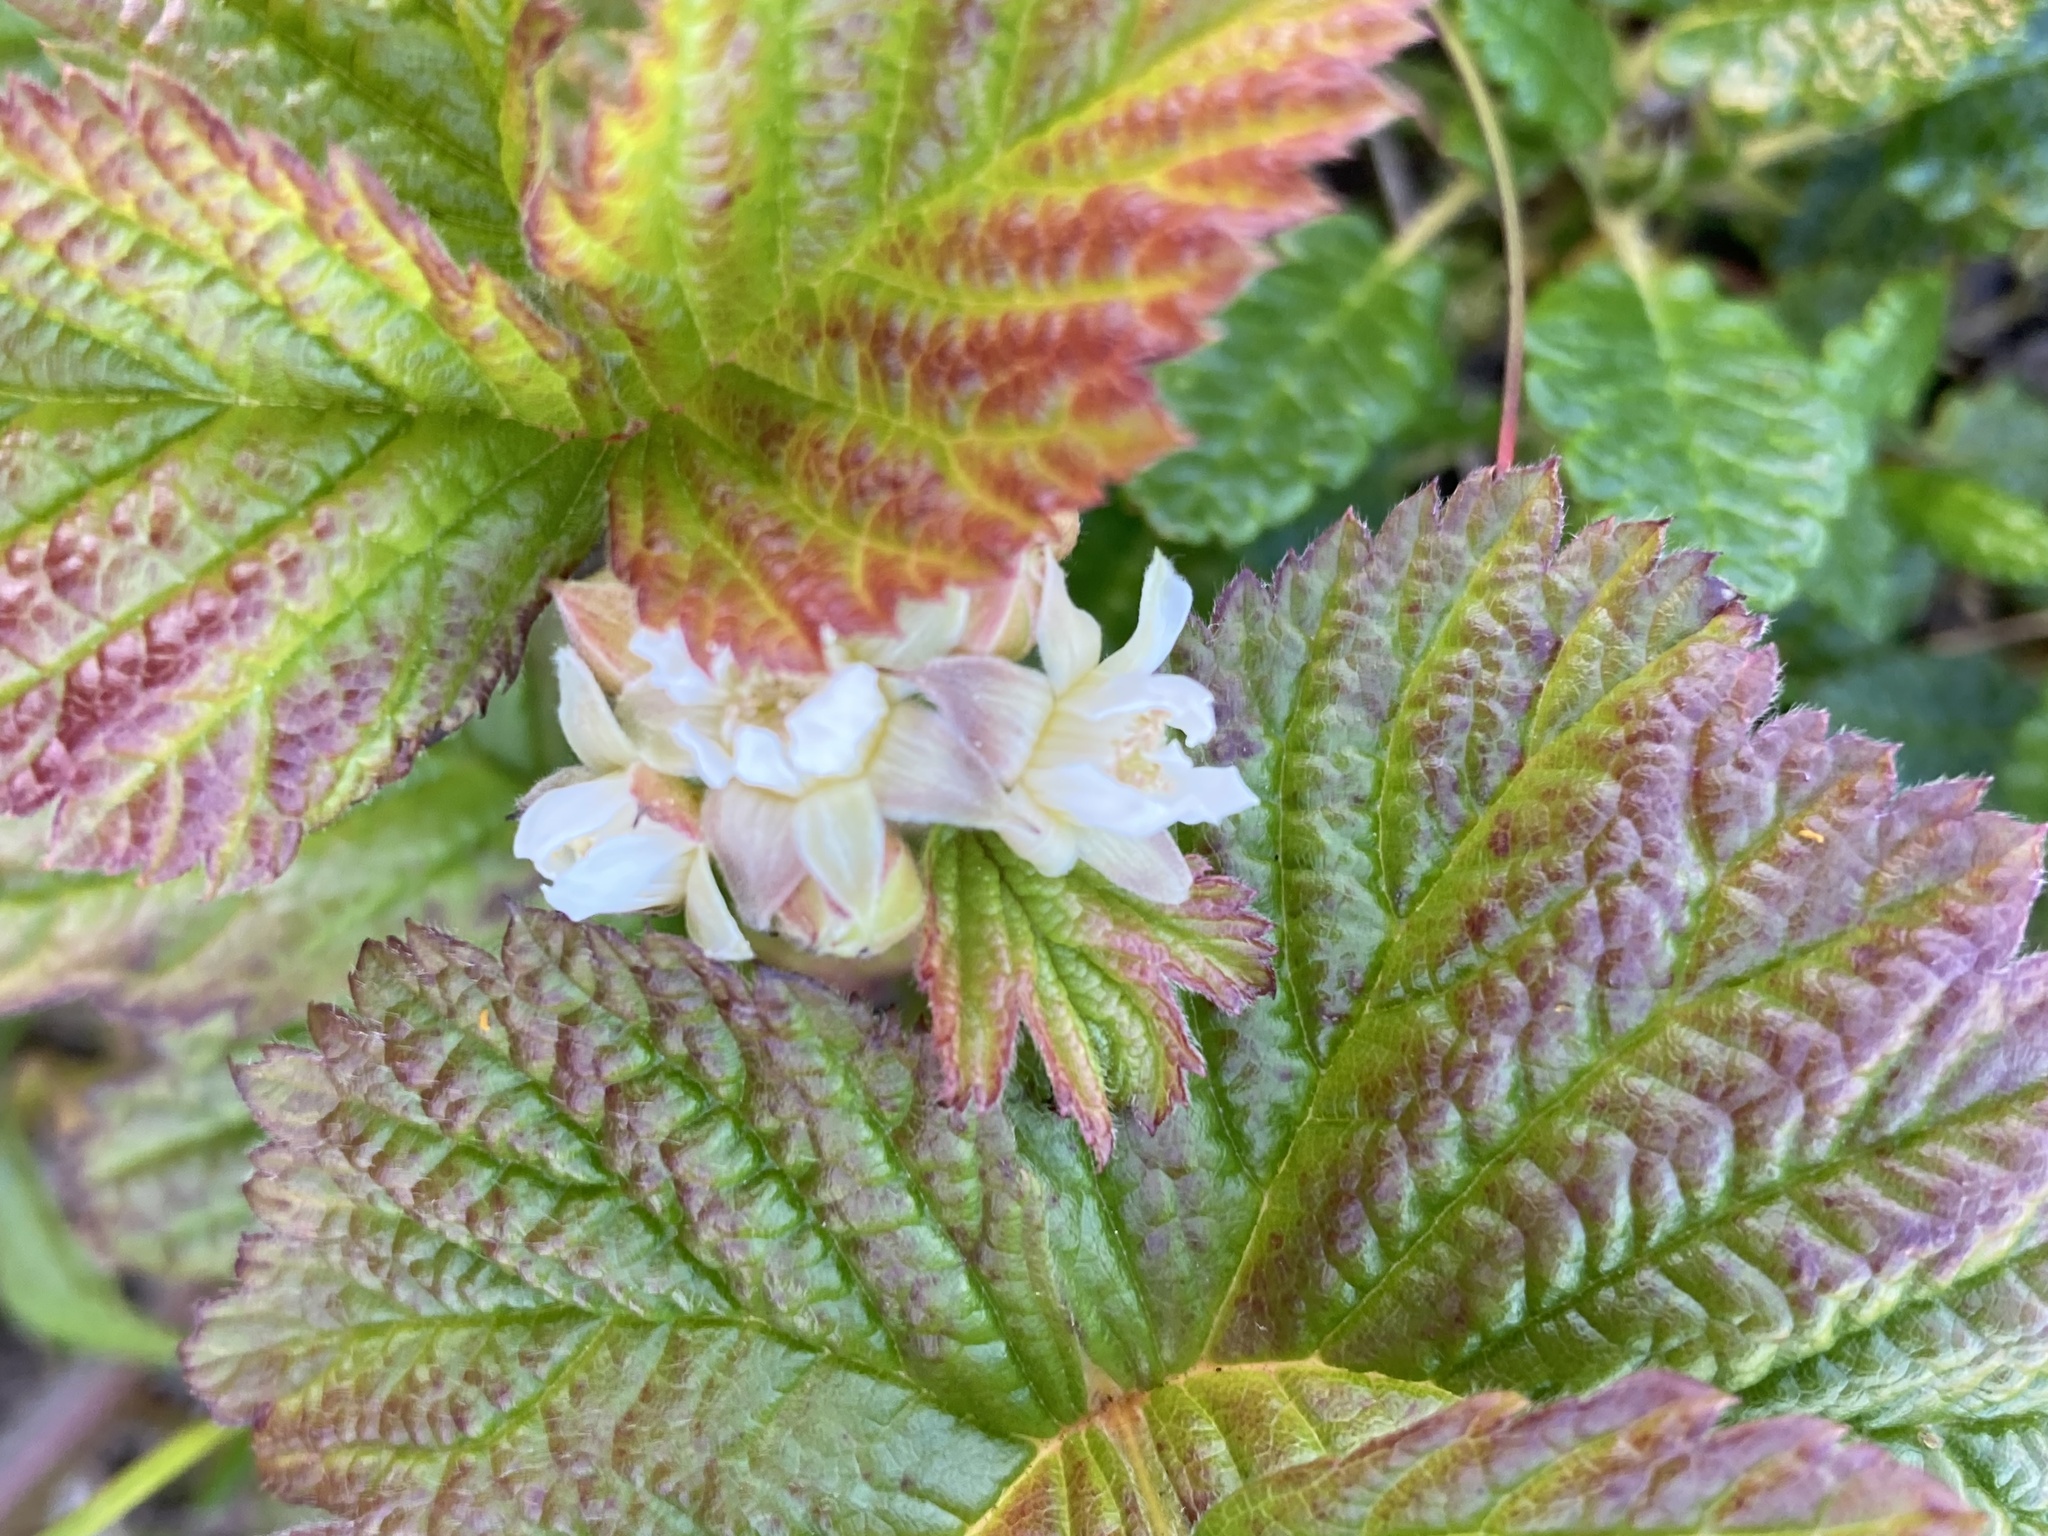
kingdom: Plantae
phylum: Tracheophyta
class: Magnoliopsida
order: Rosales
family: Rosaceae
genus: Rubus
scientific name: Rubus saxatilis
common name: Stone bramble
